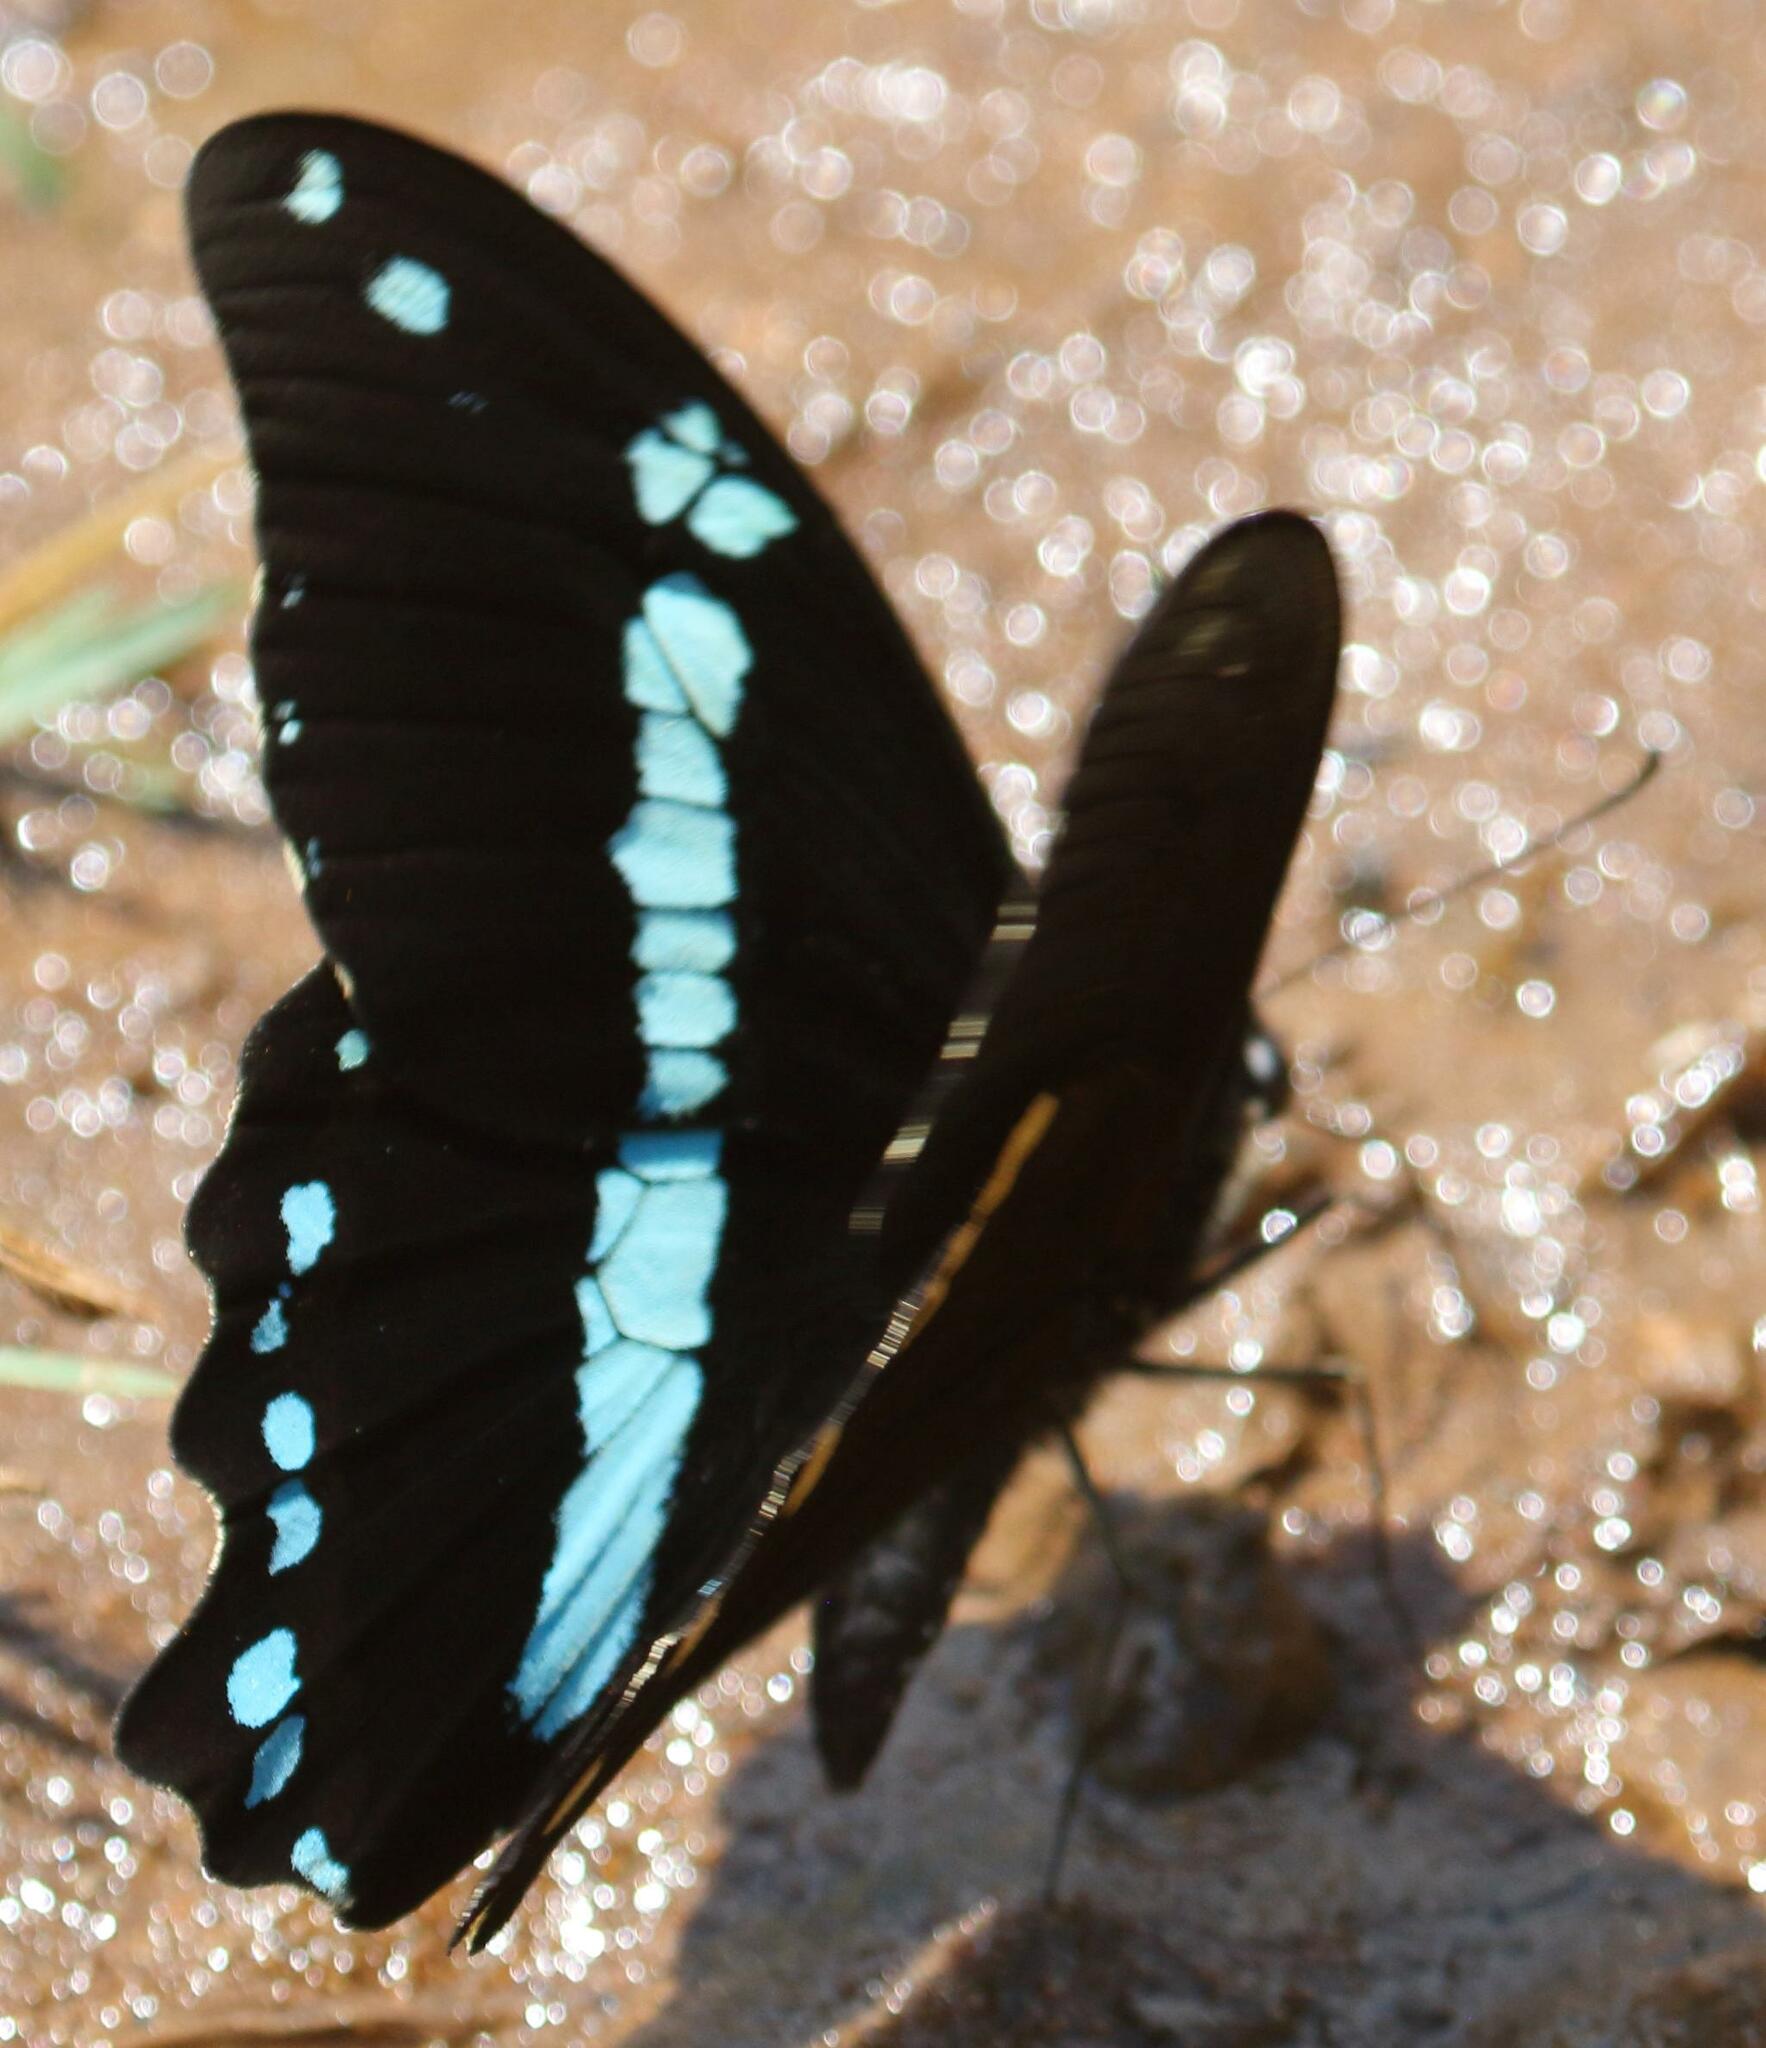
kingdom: Animalia
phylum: Arthropoda
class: Insecta
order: Lepidoptera
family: Papilionidae
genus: Papilio
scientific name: Papilio nireus
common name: Greenbanded swallowtail
